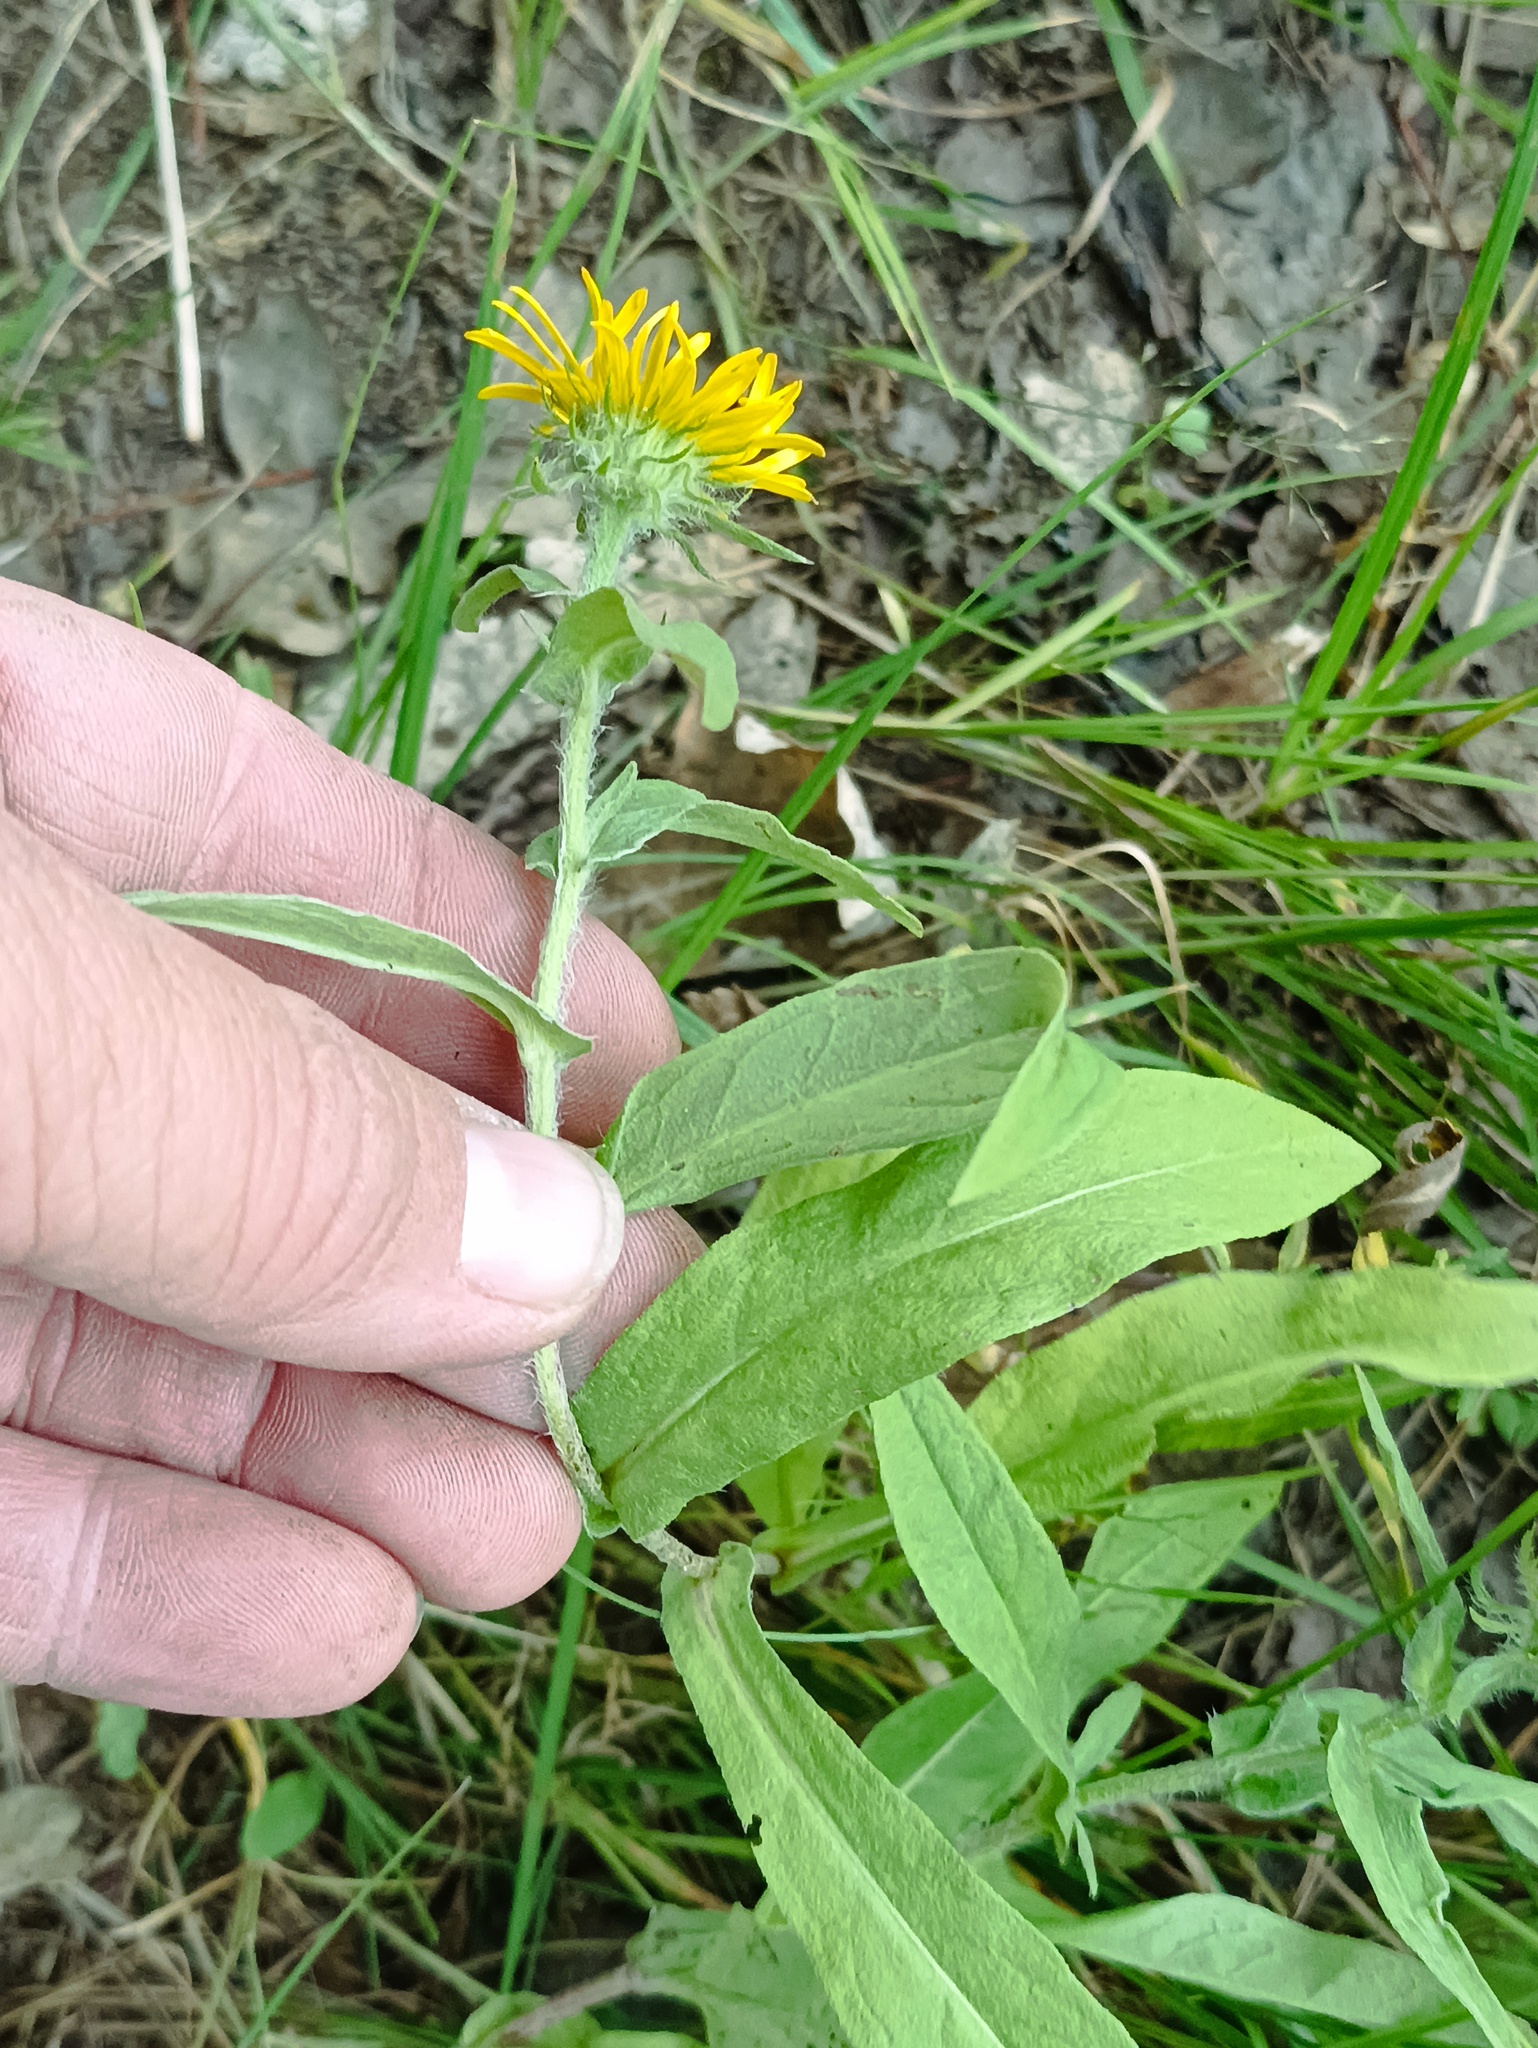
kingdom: Plantae
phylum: Tracheophyta
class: Magnoliopsida
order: Asterales
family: Asteraceae
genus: Pentanema
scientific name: Pentanema britannicum
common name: British elecampane
